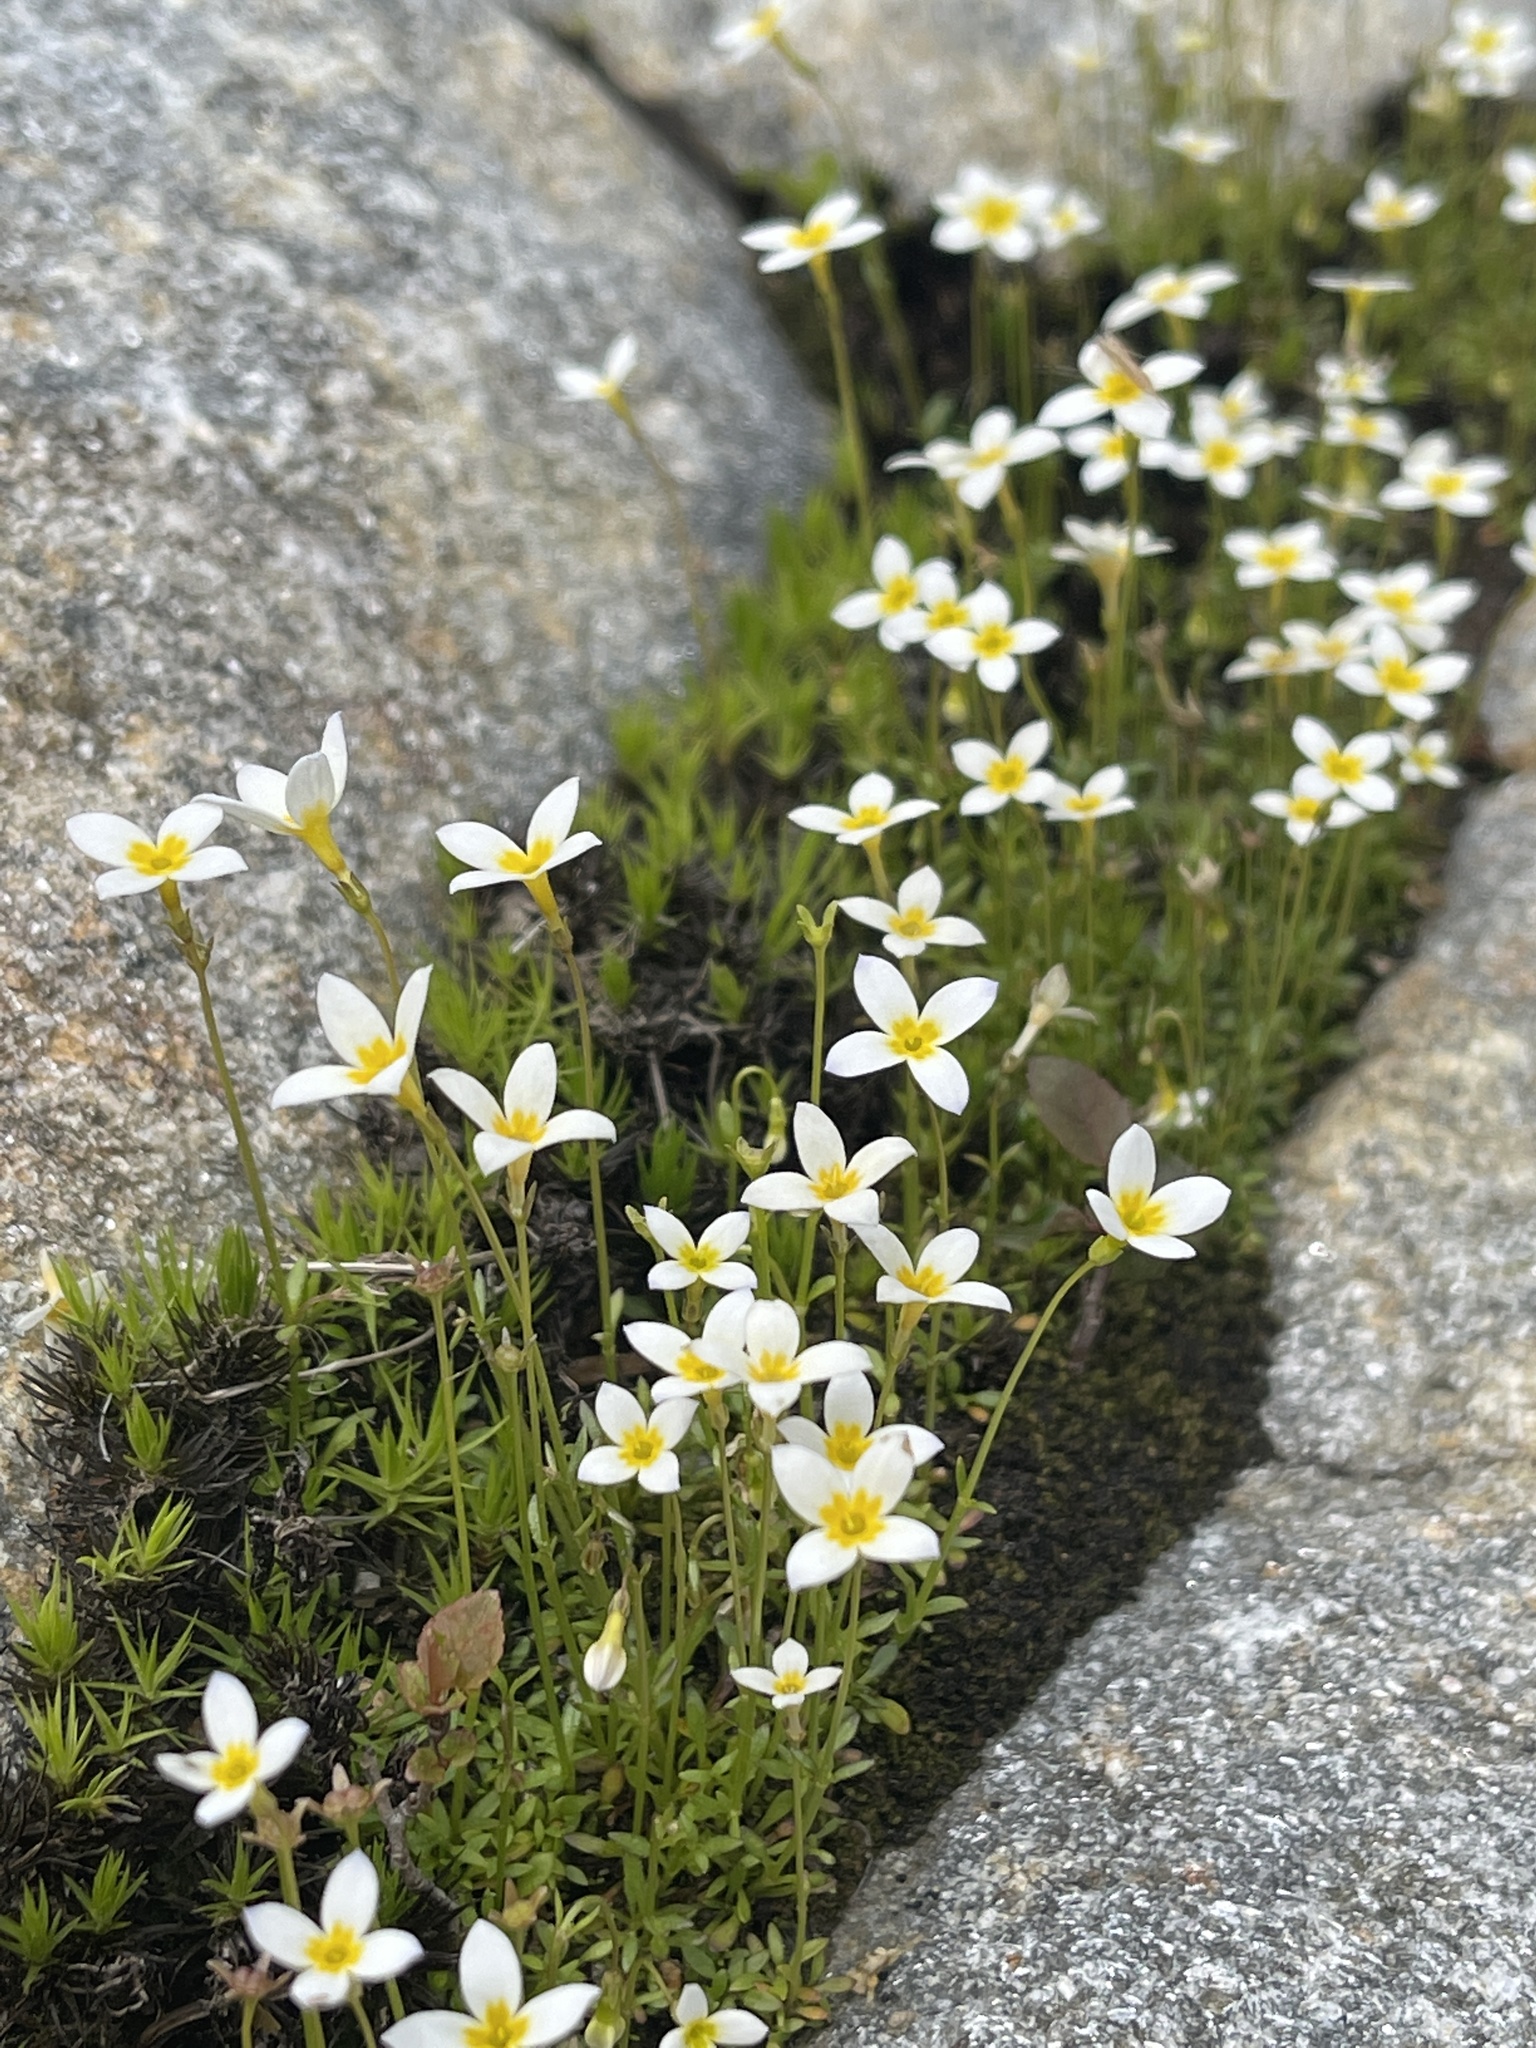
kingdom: Plantae
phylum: Tracheophyta
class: Magnoliopsida
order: Gentianales
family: Rubiaceae
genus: Houstonia
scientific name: Houstonia caerulea
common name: Bluets
